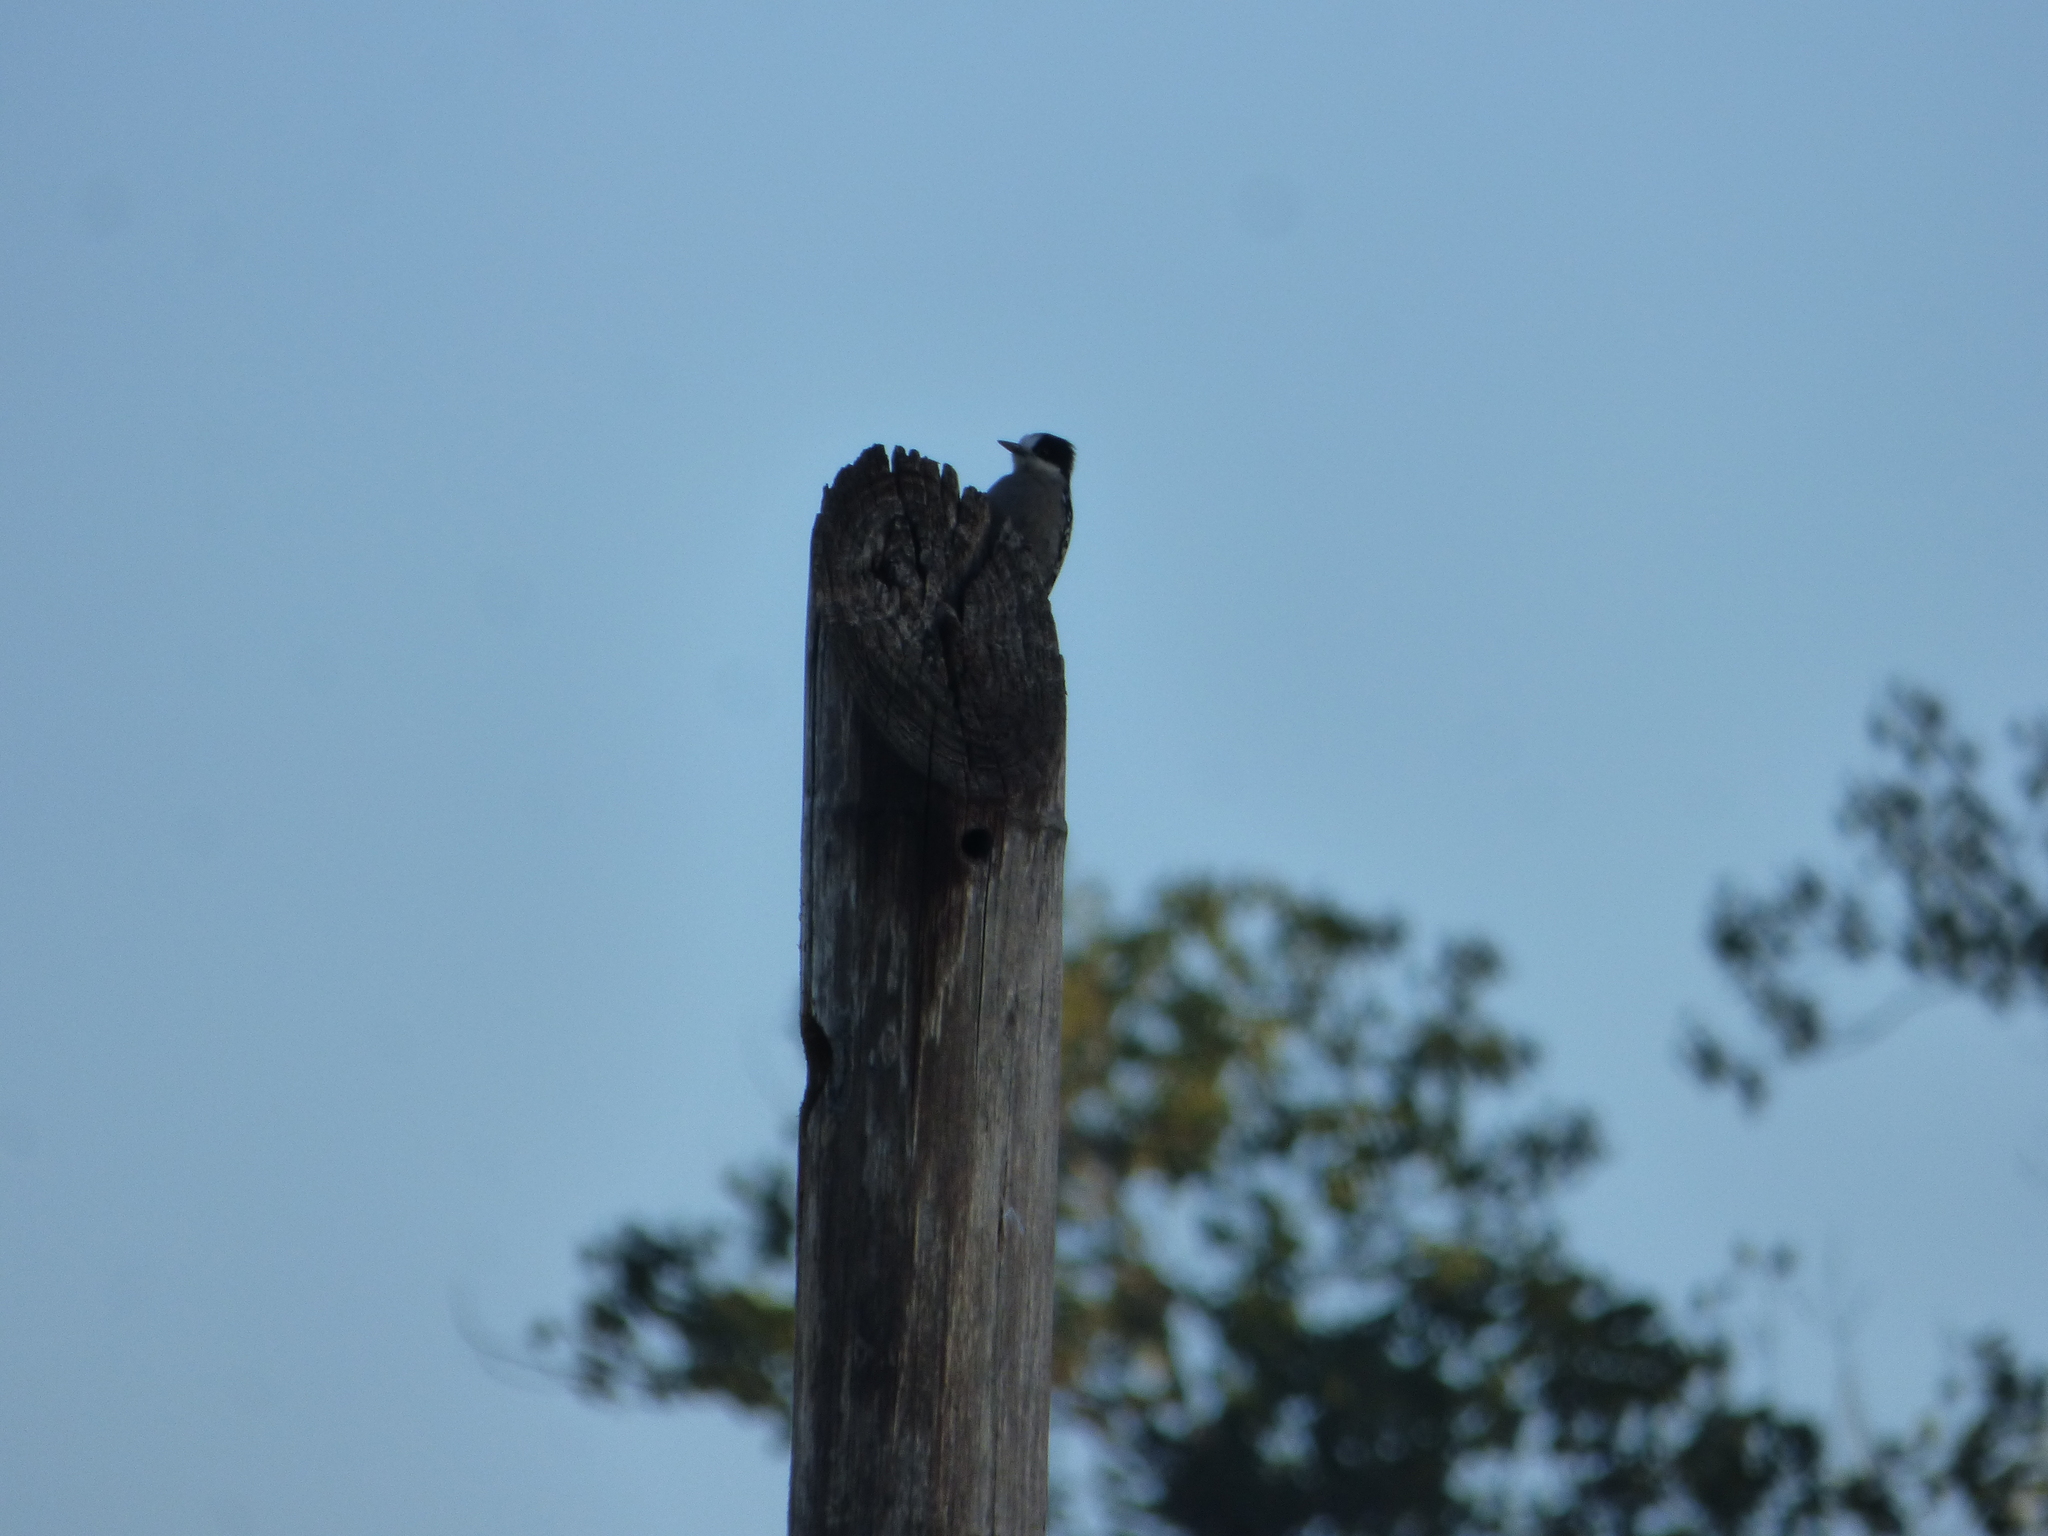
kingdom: Animalia
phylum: Chordata
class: Aves
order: Piciformes
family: Picidae
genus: Melanerpes
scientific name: Melanerpes cactorum
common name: White-fronted woodpecker
